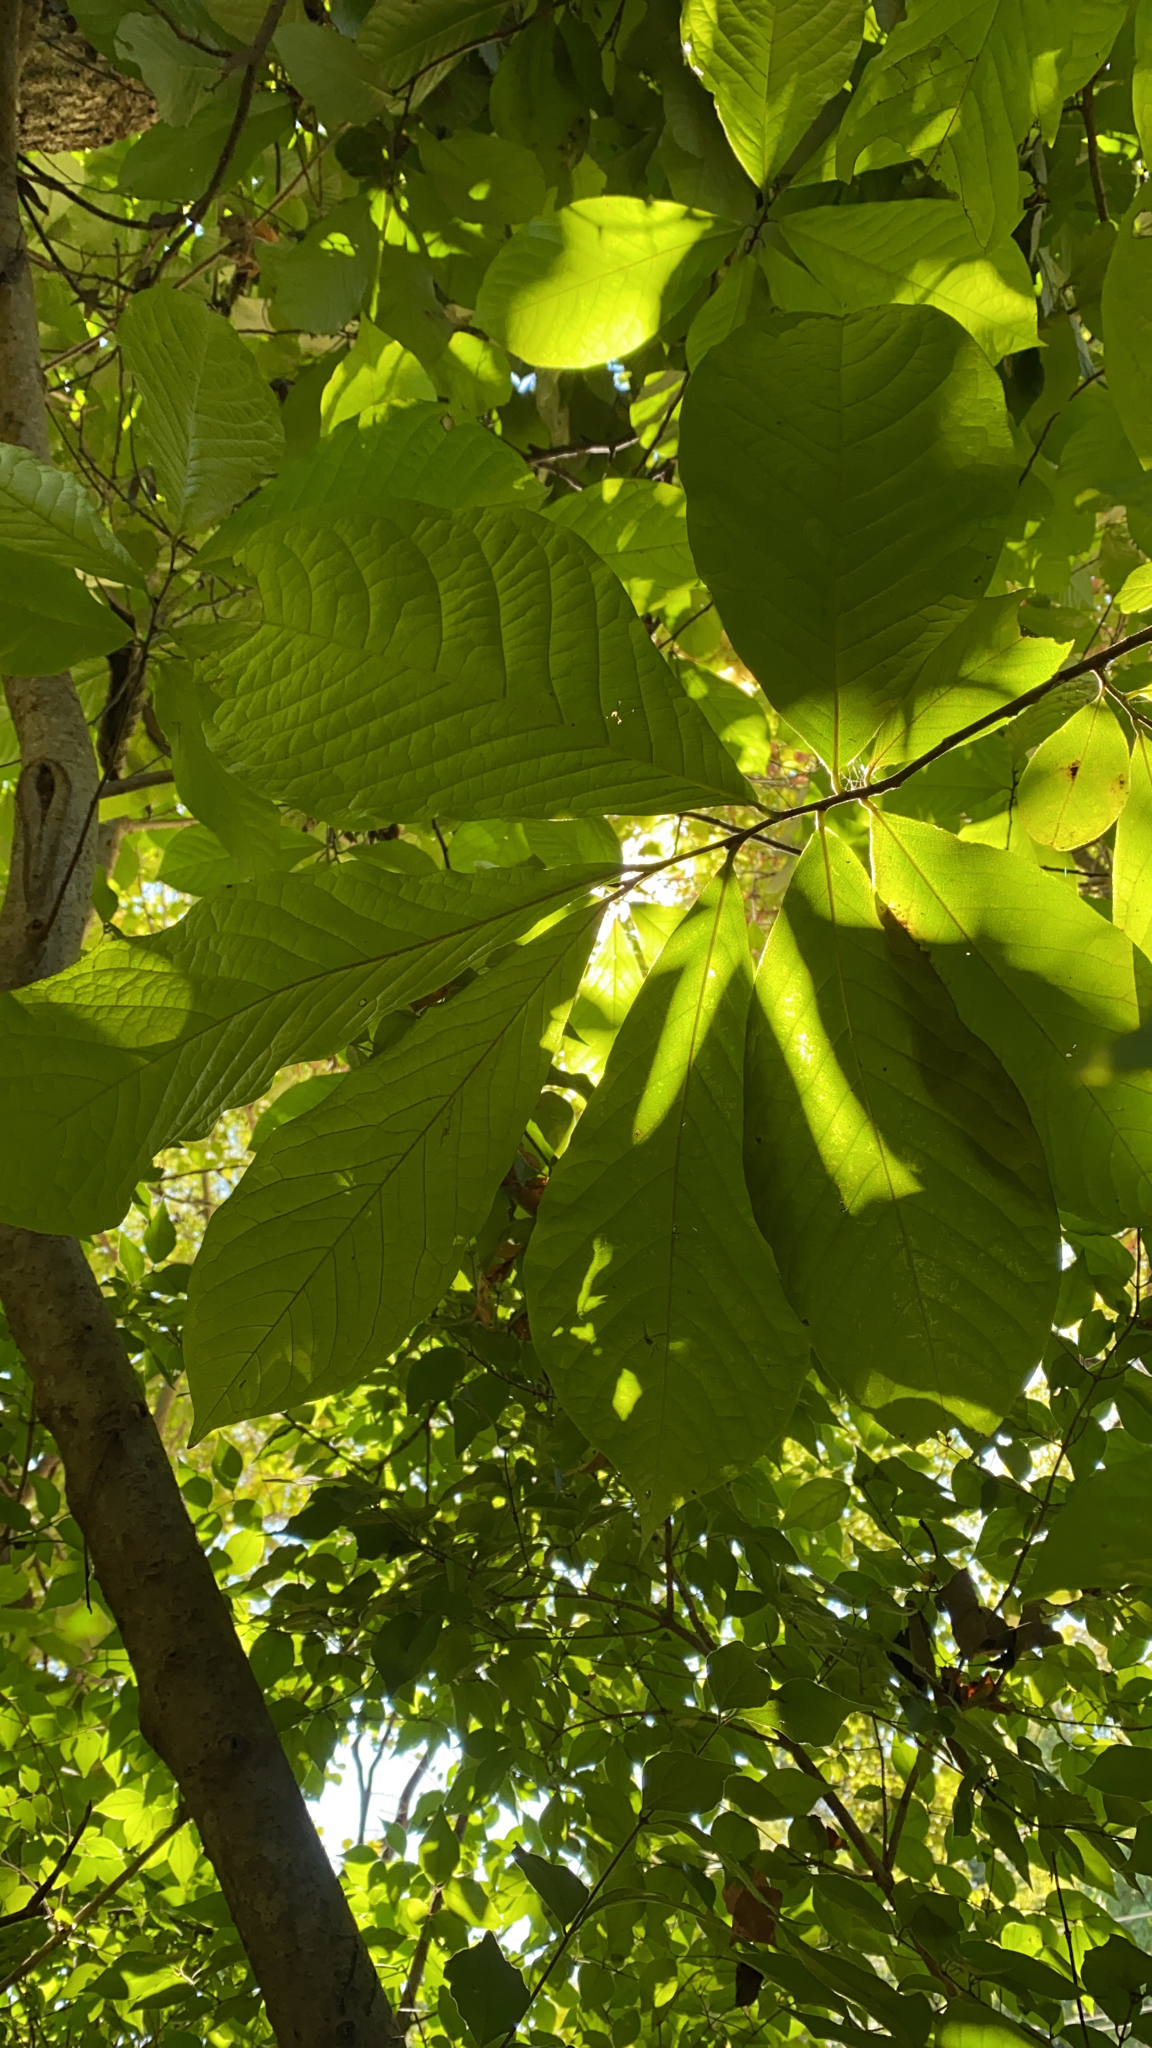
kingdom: Plantae
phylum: Tracheophyta
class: Magnoliopsida
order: Magnoliales
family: Annonaceae
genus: Asimina
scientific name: Asimina triloba
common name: Dog-banana
